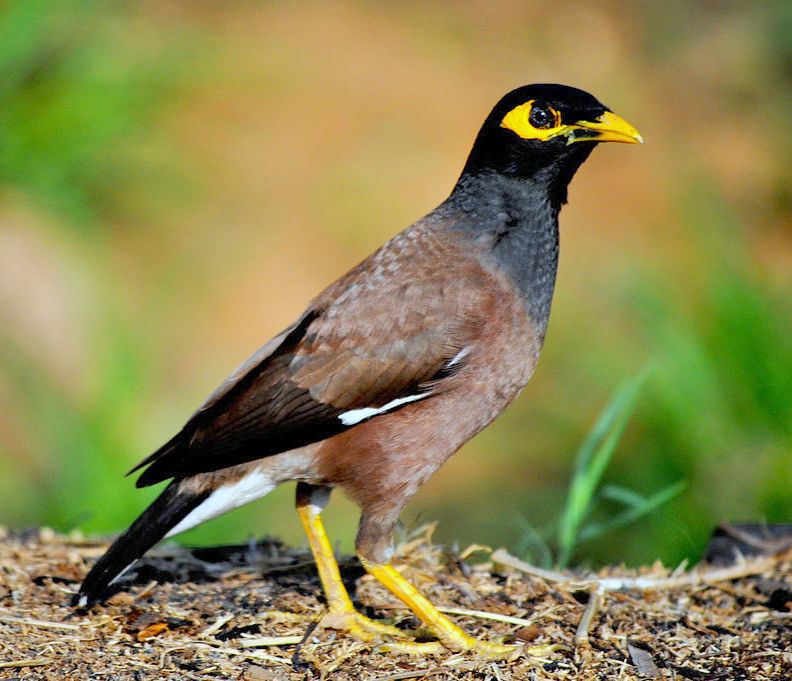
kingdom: Animalia
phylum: Chordata
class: Aves
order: Passeriformes
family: Sturnidae
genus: Acridotheres
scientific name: Acridotheres tristis
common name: Common myna
